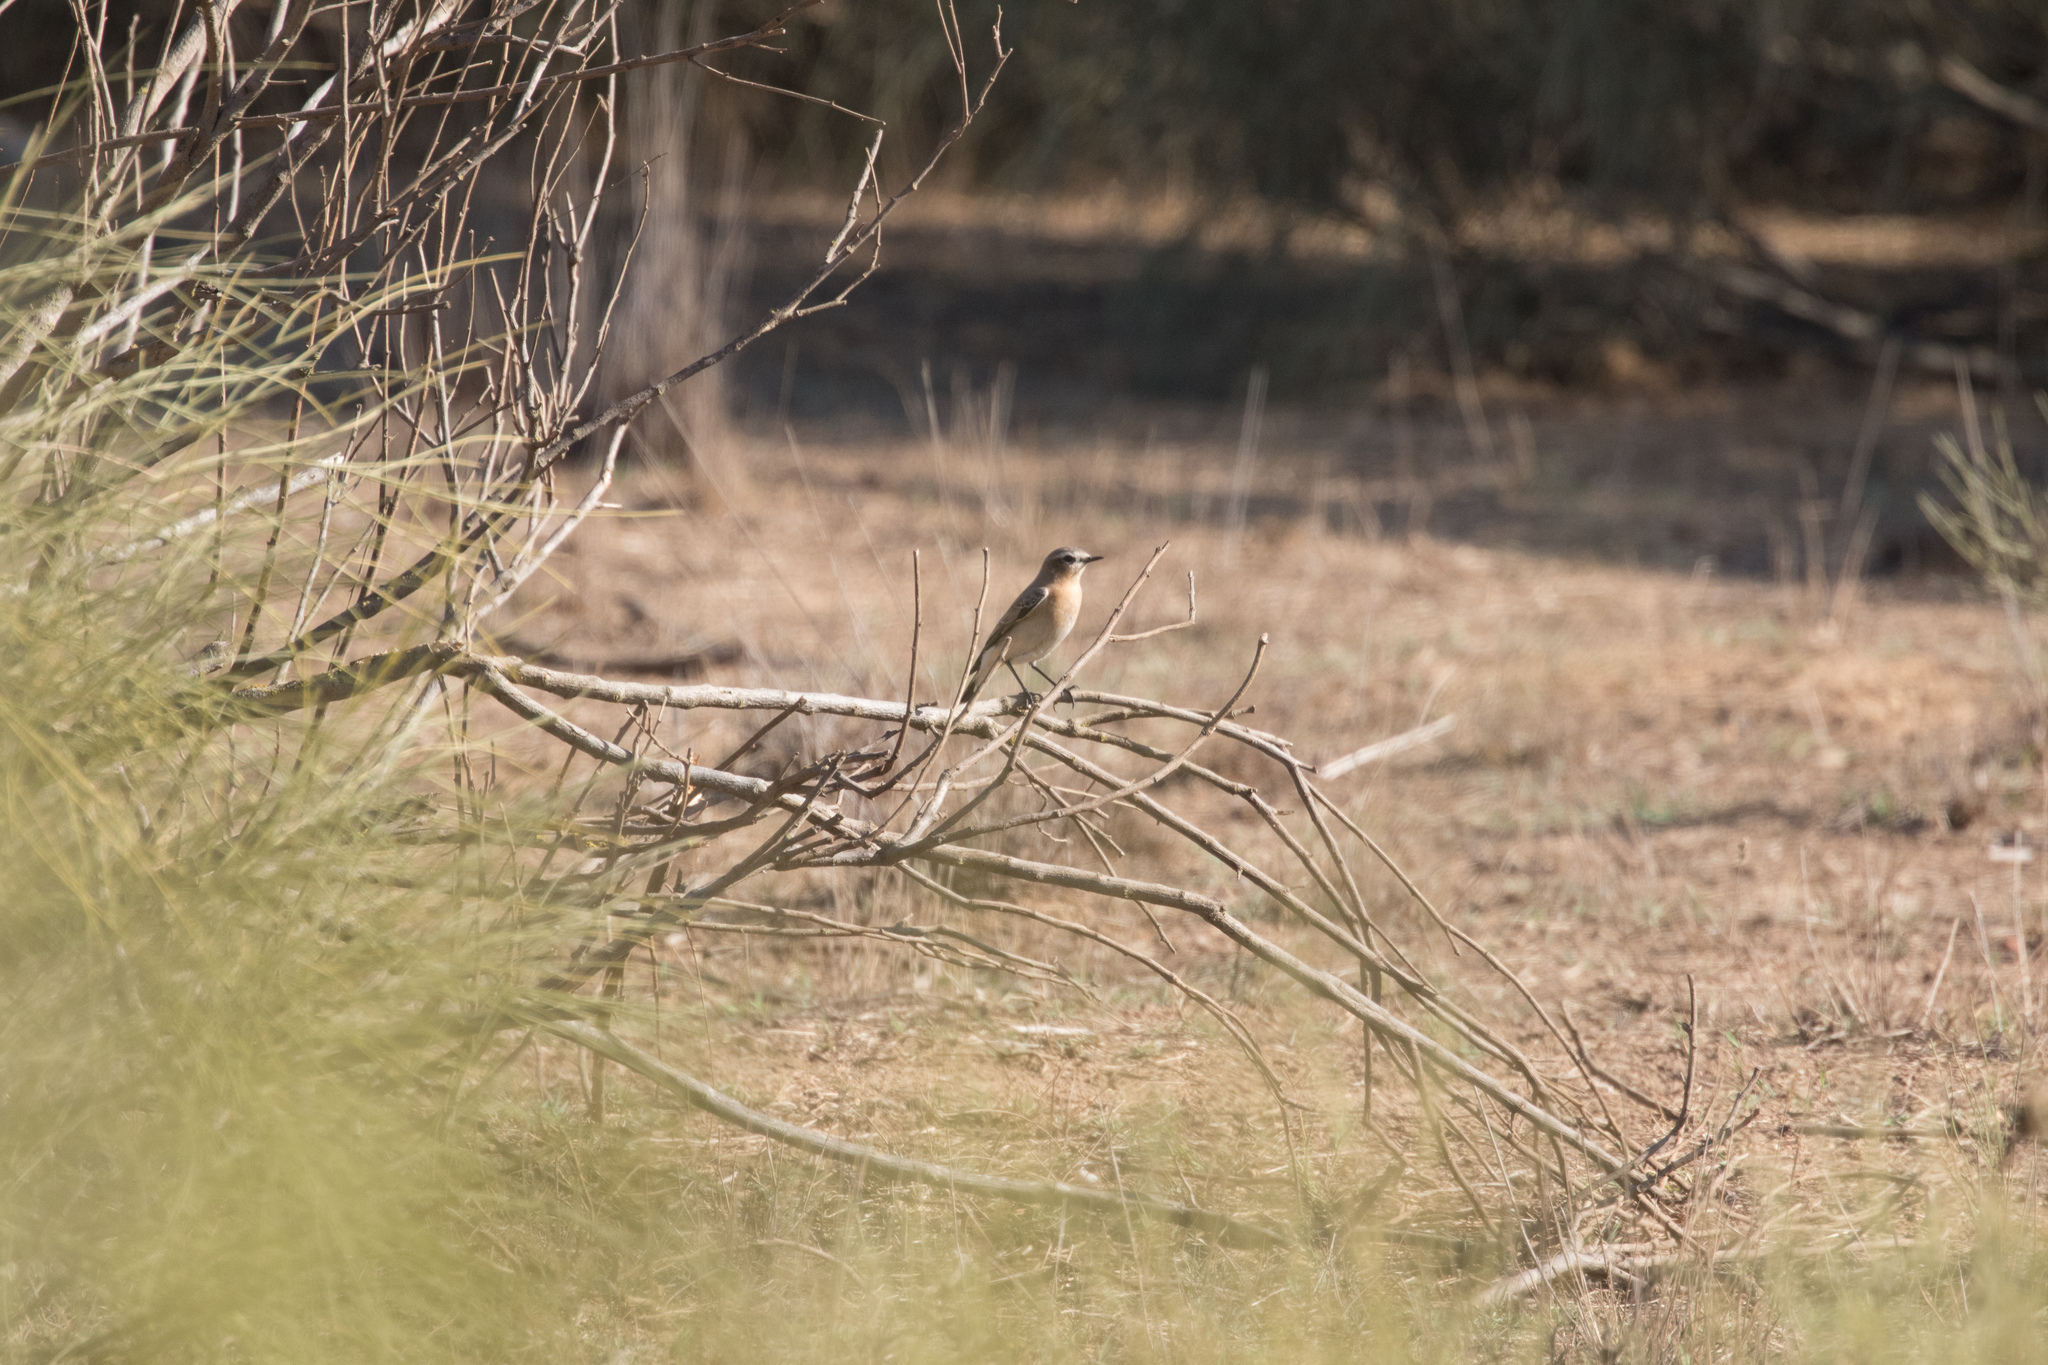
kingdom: Animalia
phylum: Chordata
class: Aves
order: Passeriformes
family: Muscicapidae
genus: Oenanthe
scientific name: Oenanthe oenanthe
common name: Northern wheatear
